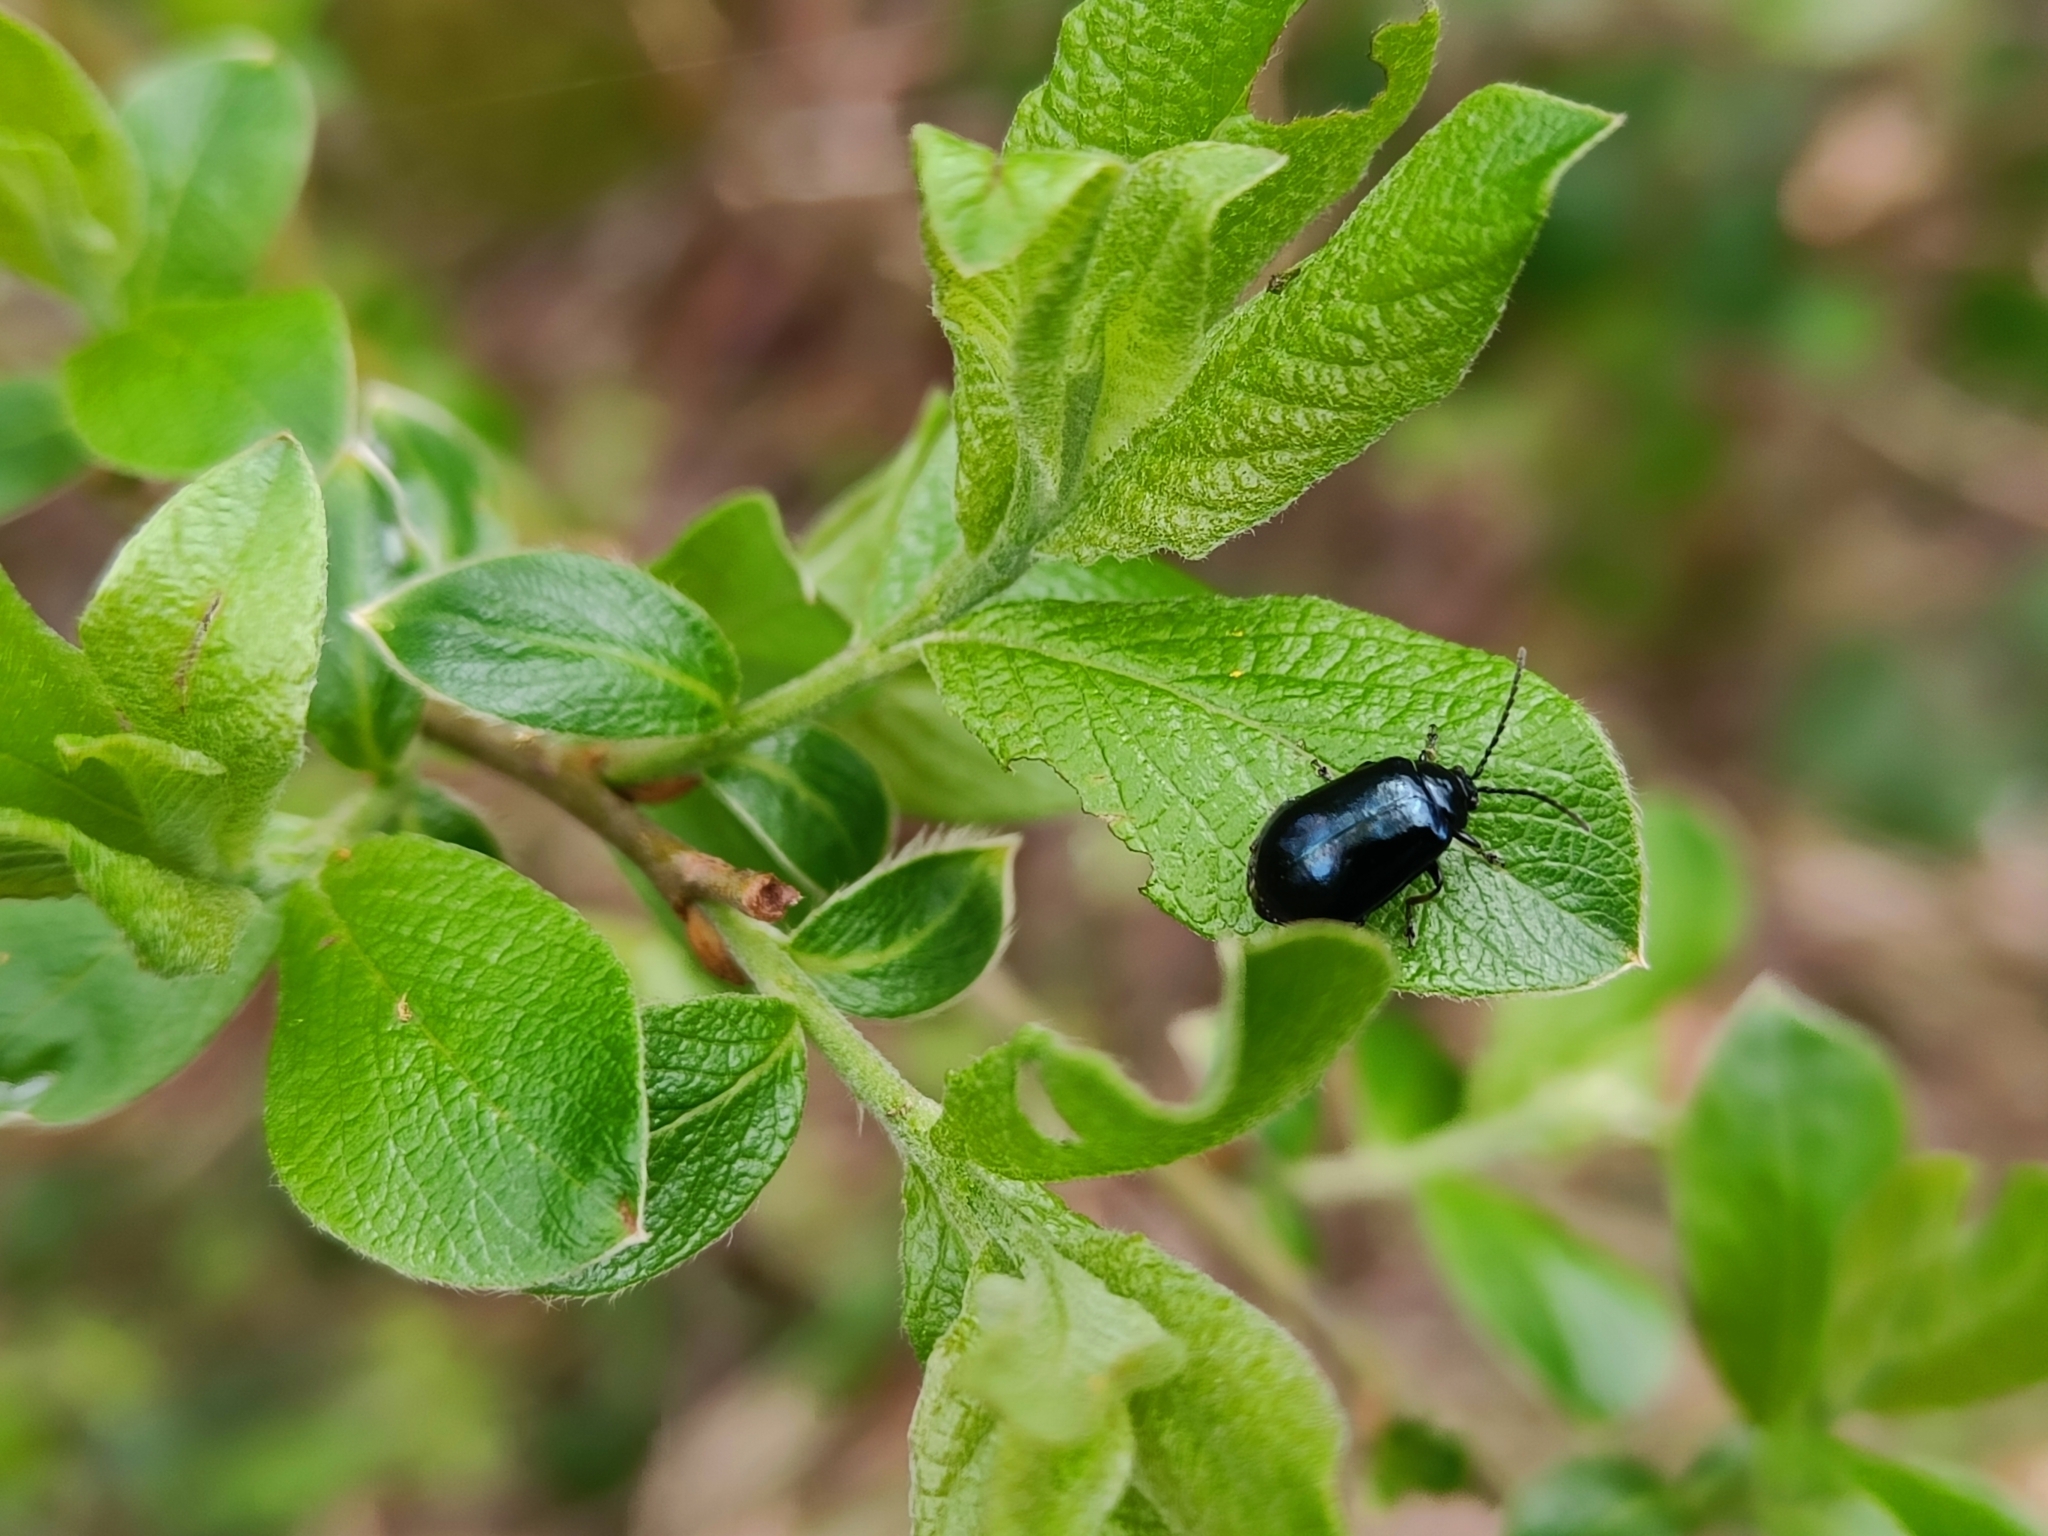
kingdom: Animalia
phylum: Arthropoda
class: Insecta
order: Coleoptera
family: Chrysomelidae
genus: Agelastica
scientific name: Agelastica alni
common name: Alder leaf beetle
